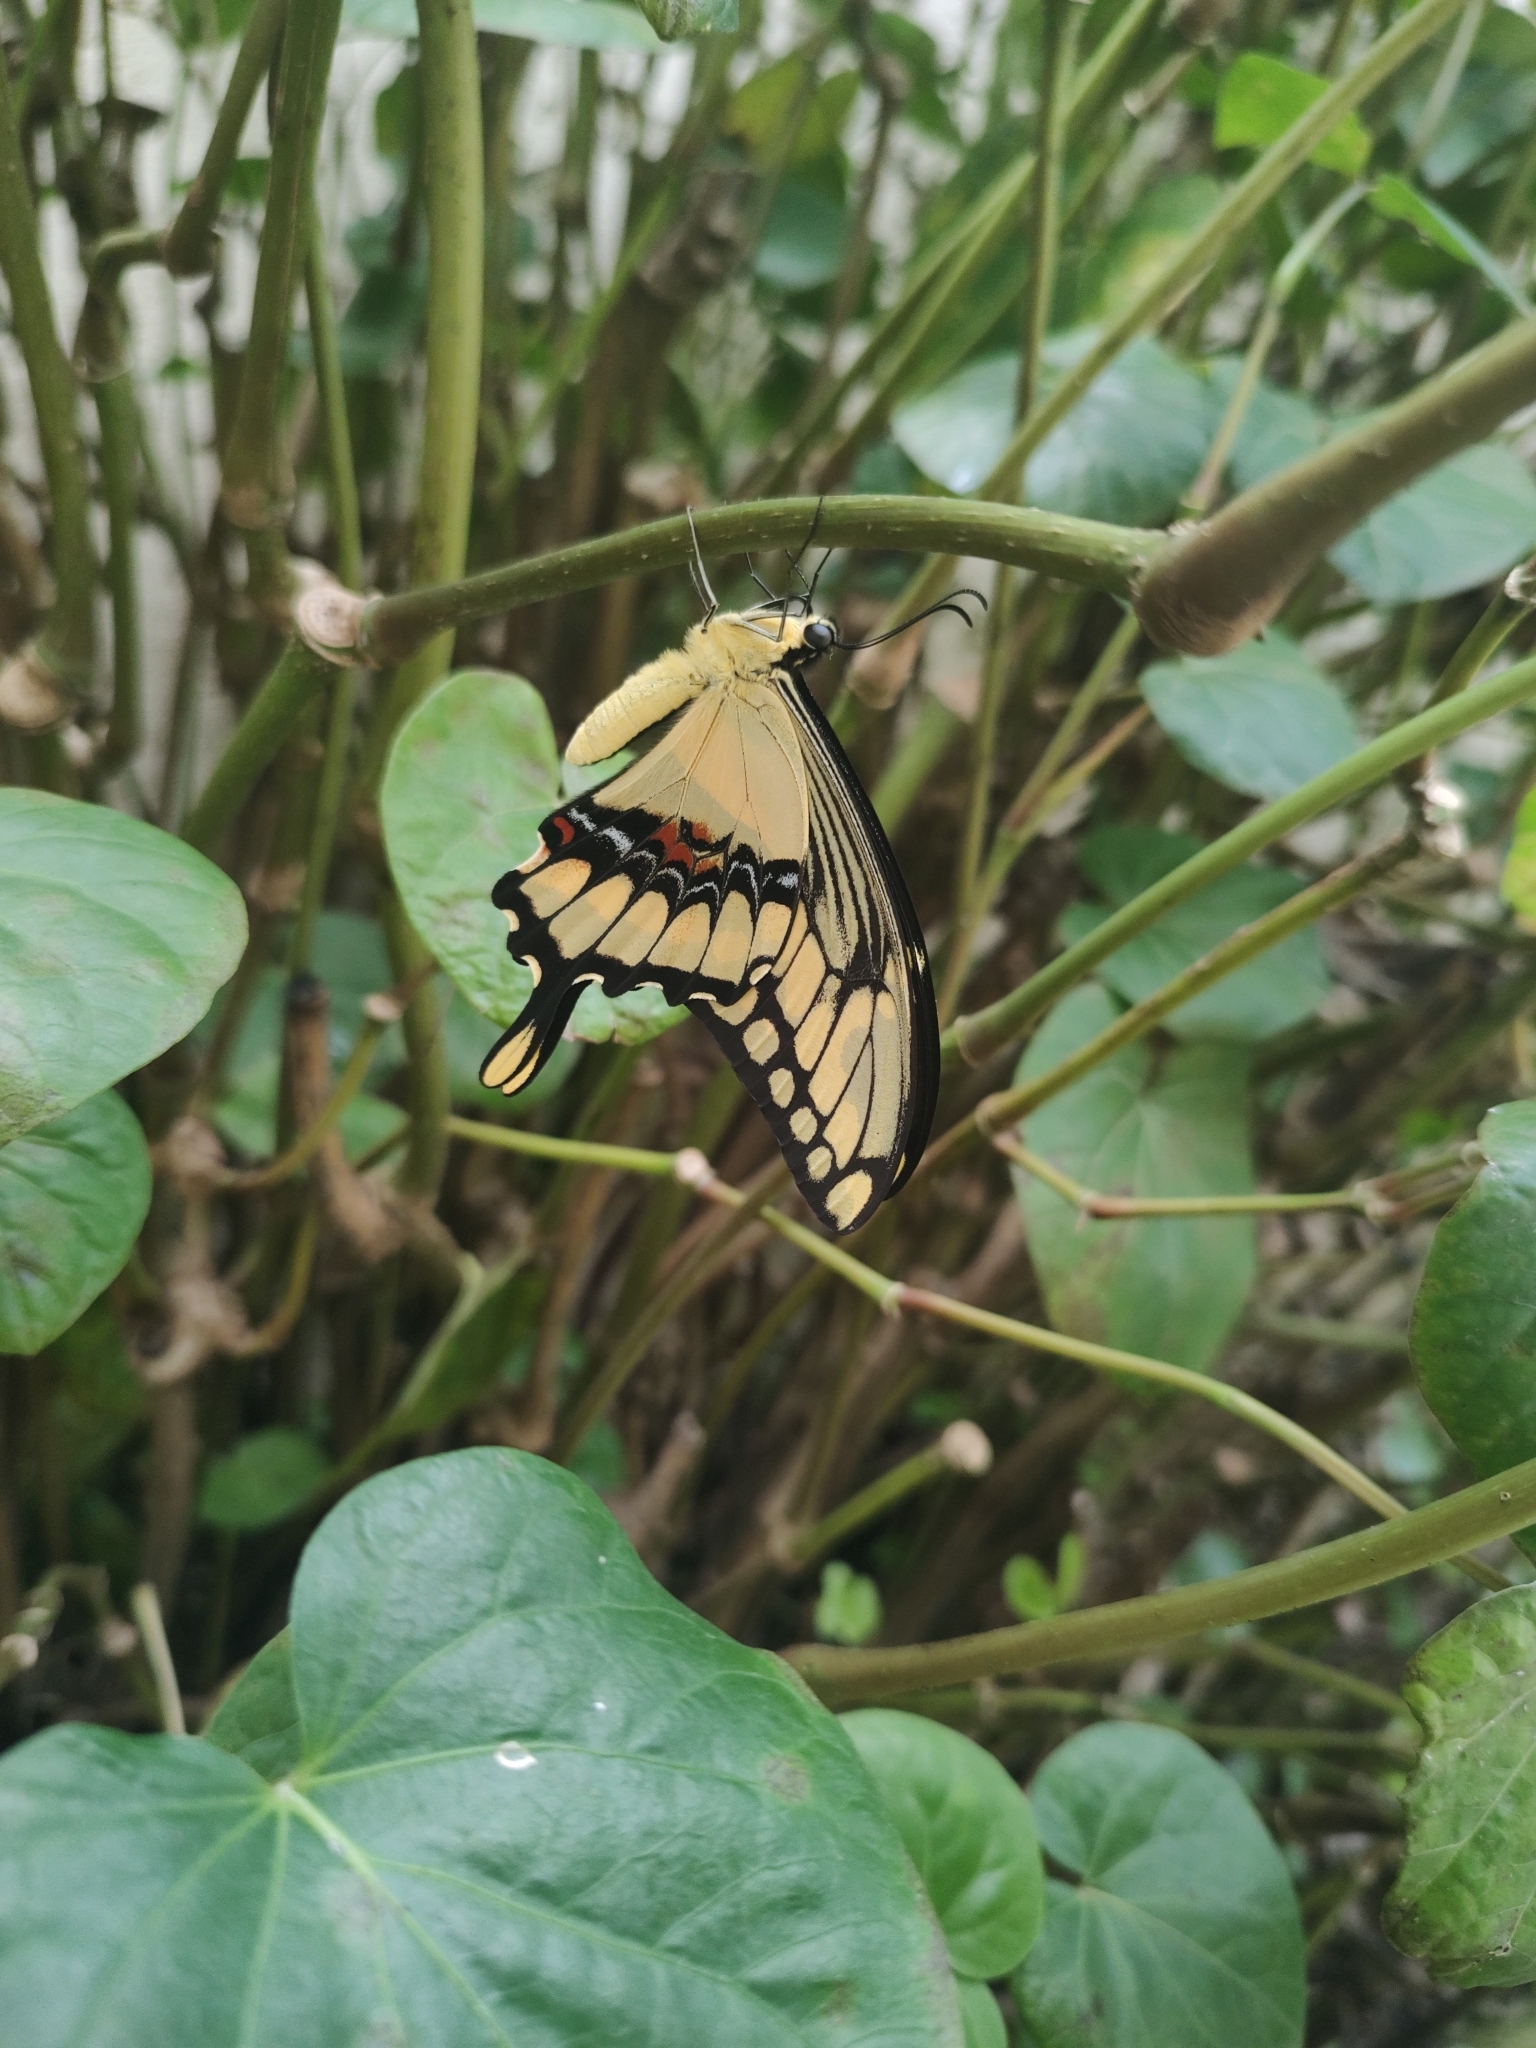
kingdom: Animalia
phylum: Arthropoda
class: Insecta
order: Lepidoptera
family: Papilionidae
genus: Papilio
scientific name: Papilio thoas
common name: King swallowtail
